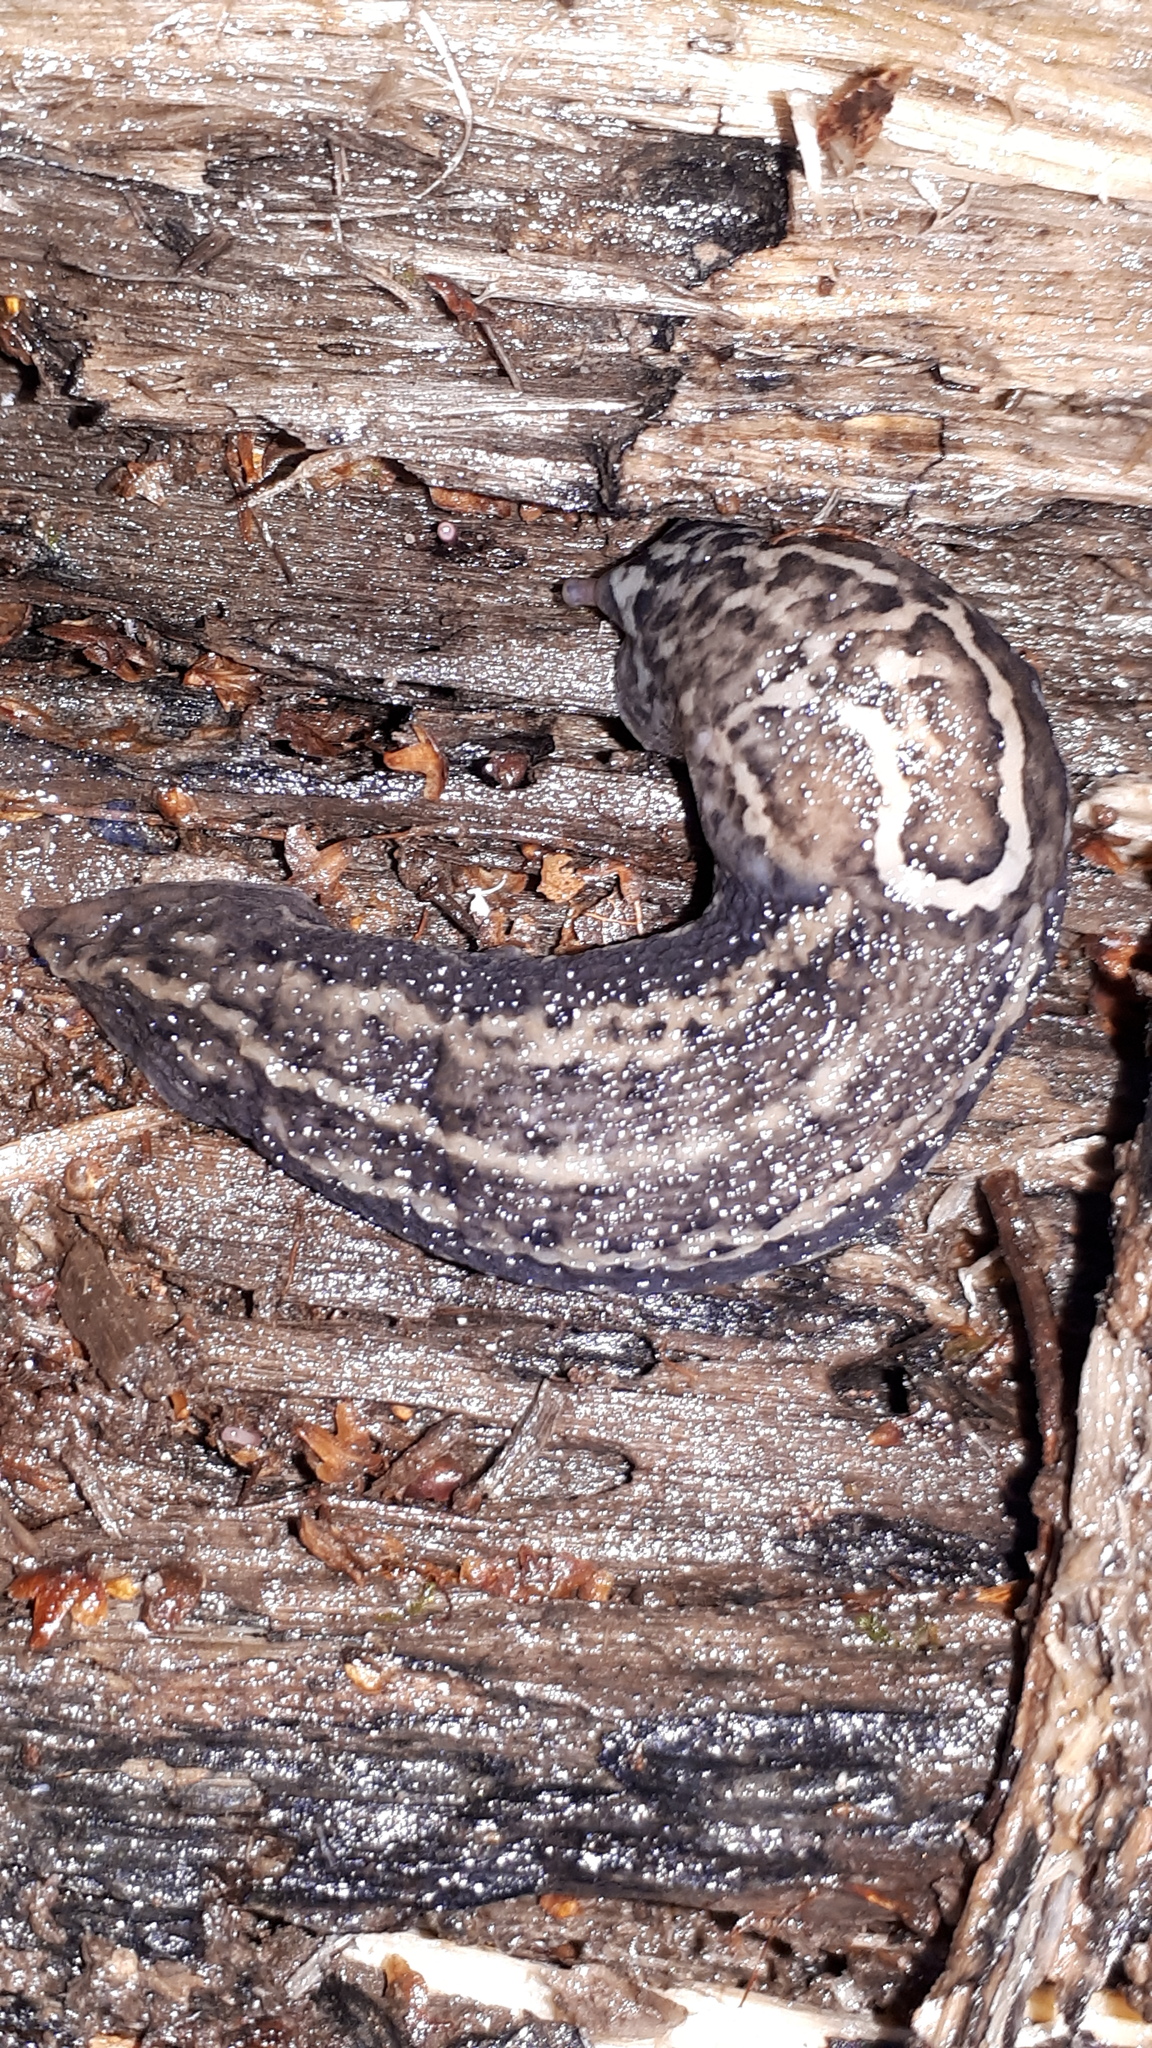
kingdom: Animalia
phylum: Mollusca
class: Gastropoda
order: Stylommatophora
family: Limacidae
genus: Limax
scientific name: Limax maximus
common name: Great grey slug
